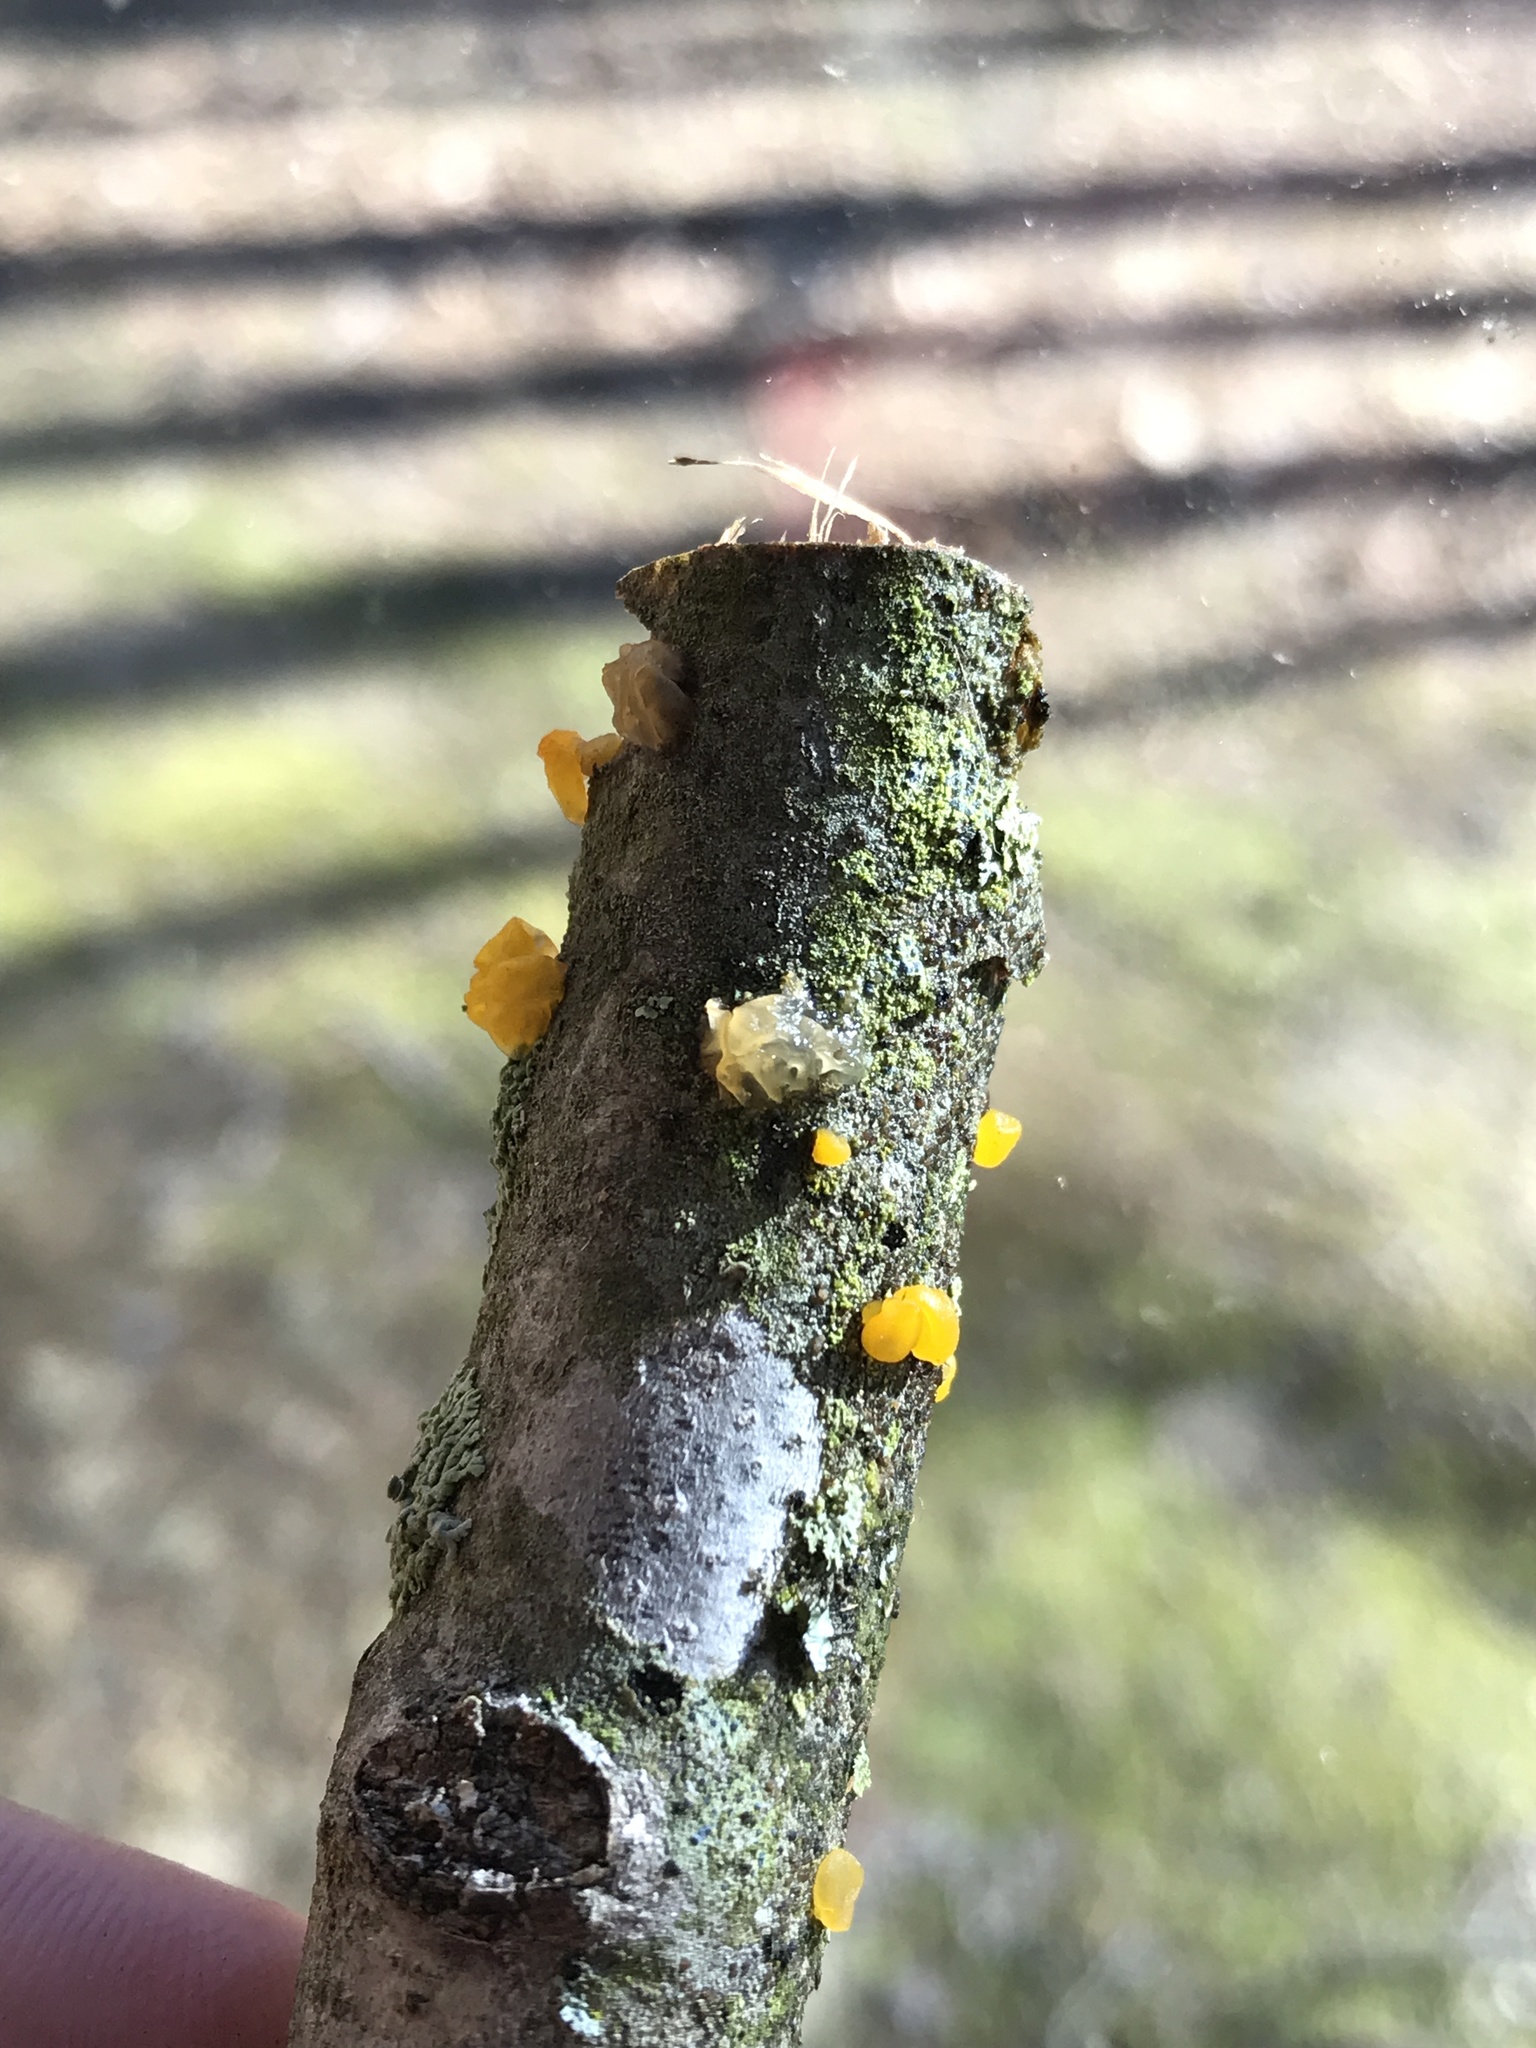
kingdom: Fungi
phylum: Basidiomycota
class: Dacrymycetes
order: Dacrymycetales
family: Dacrymycetaceae
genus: Dacrymyces
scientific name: Dacrymyces chrysospermus
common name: Orange jelly spot
